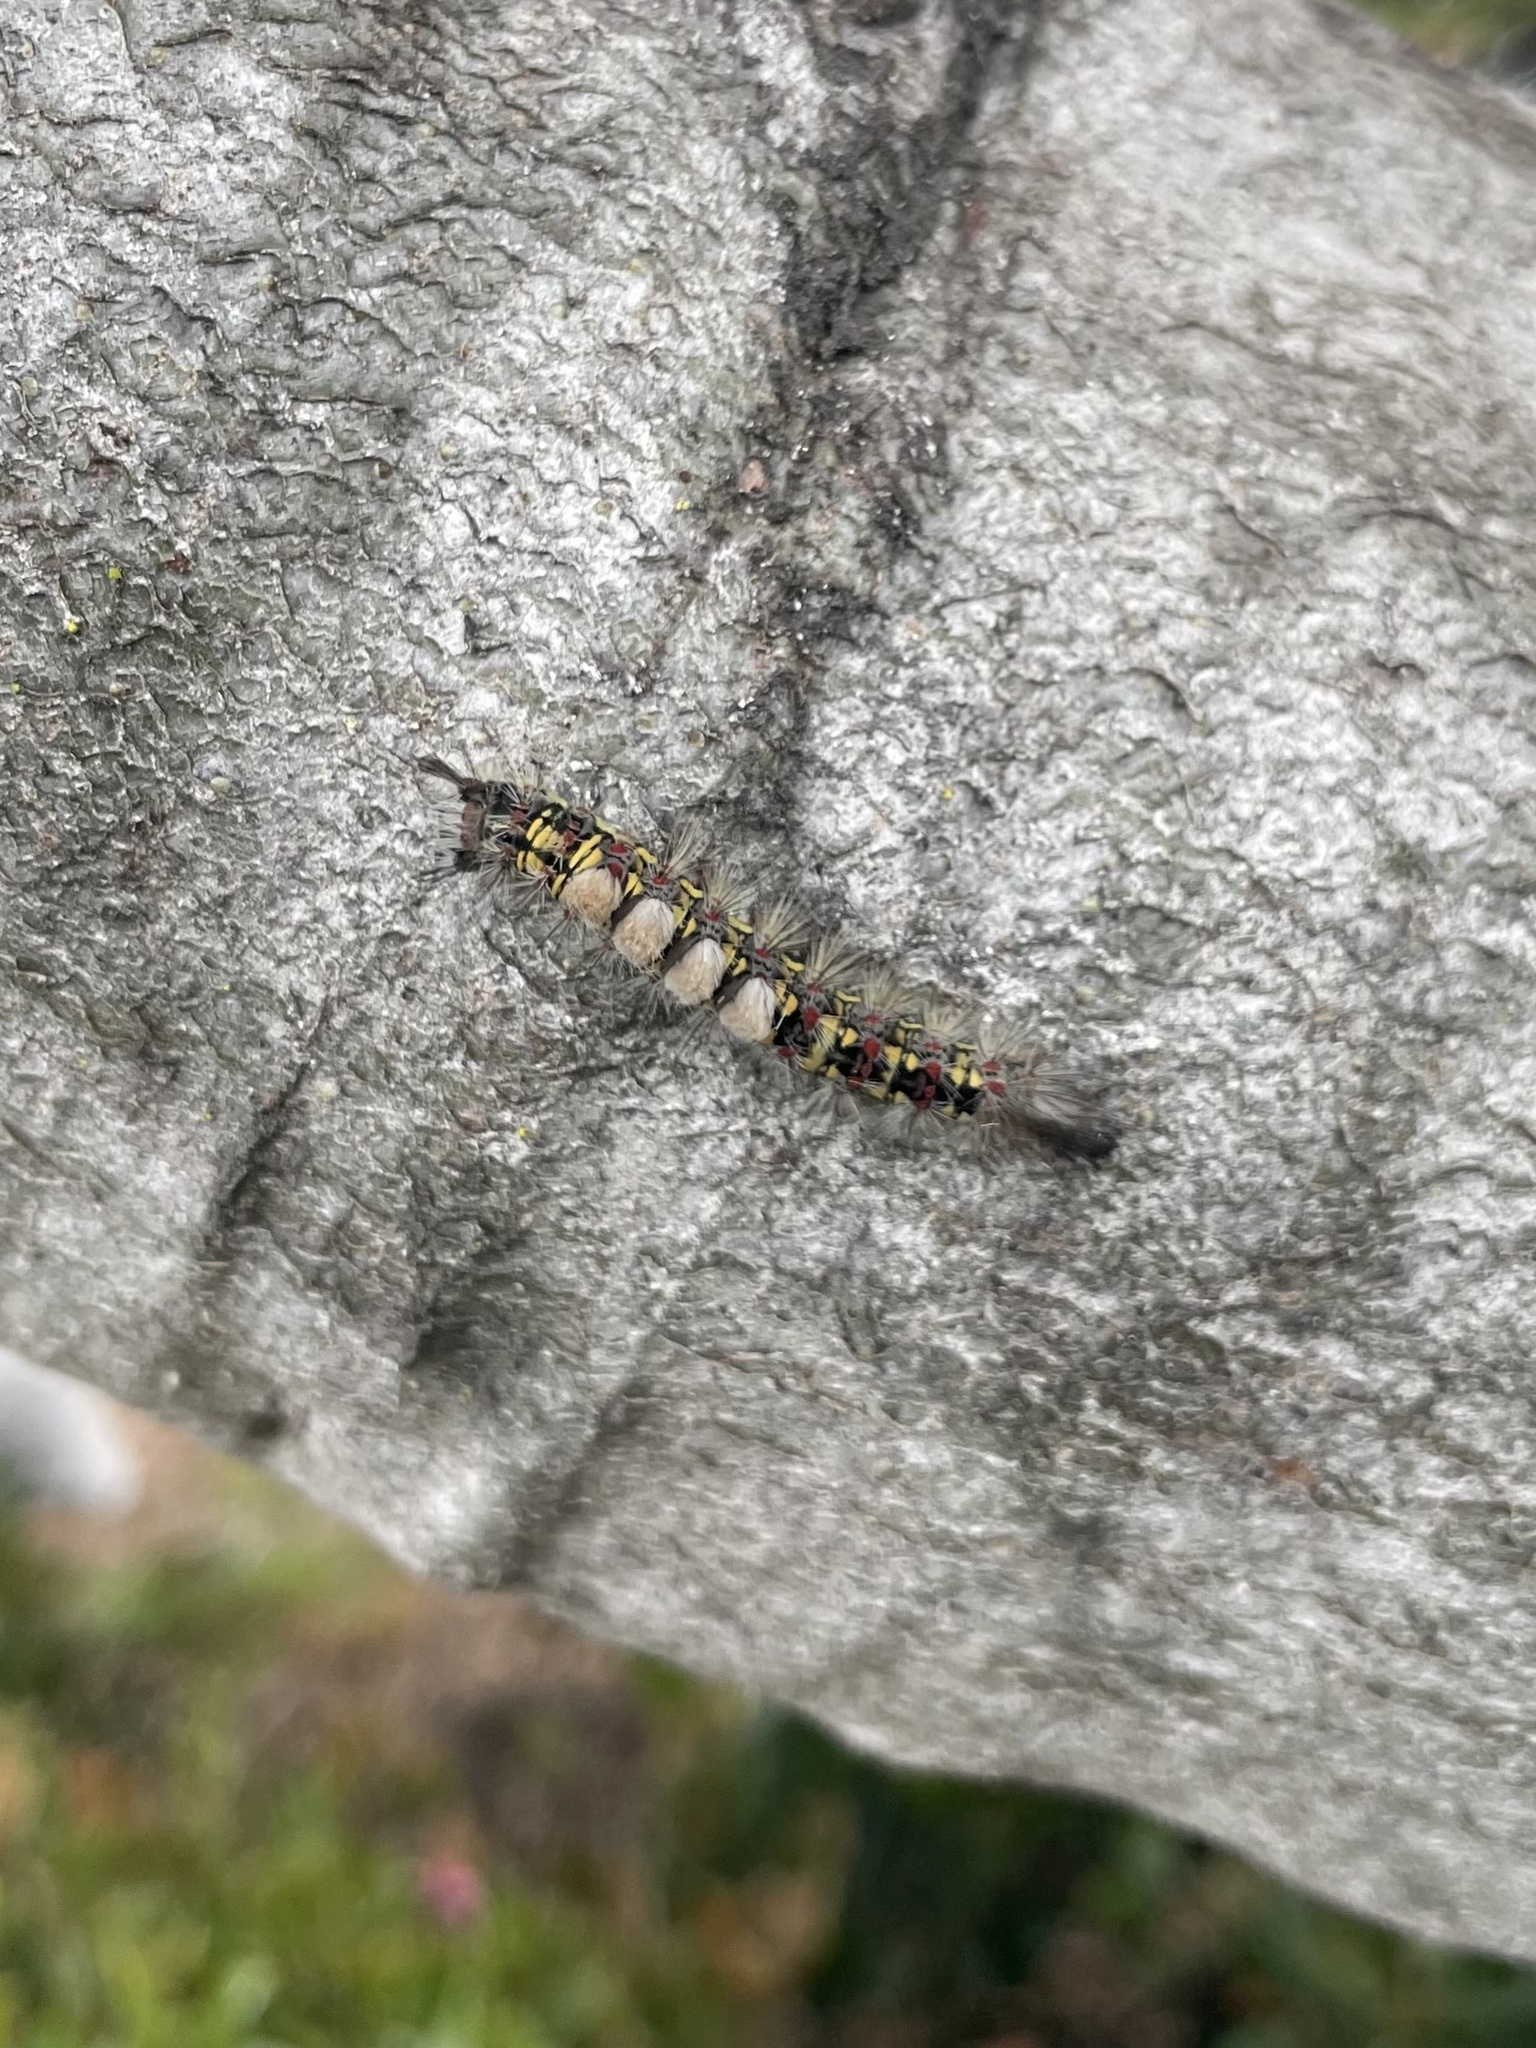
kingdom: Animalia
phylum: Arthropoda
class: Insecta
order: Lepidoptera
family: Erebidae
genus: Orgyia
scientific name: Orgyia vetusta
